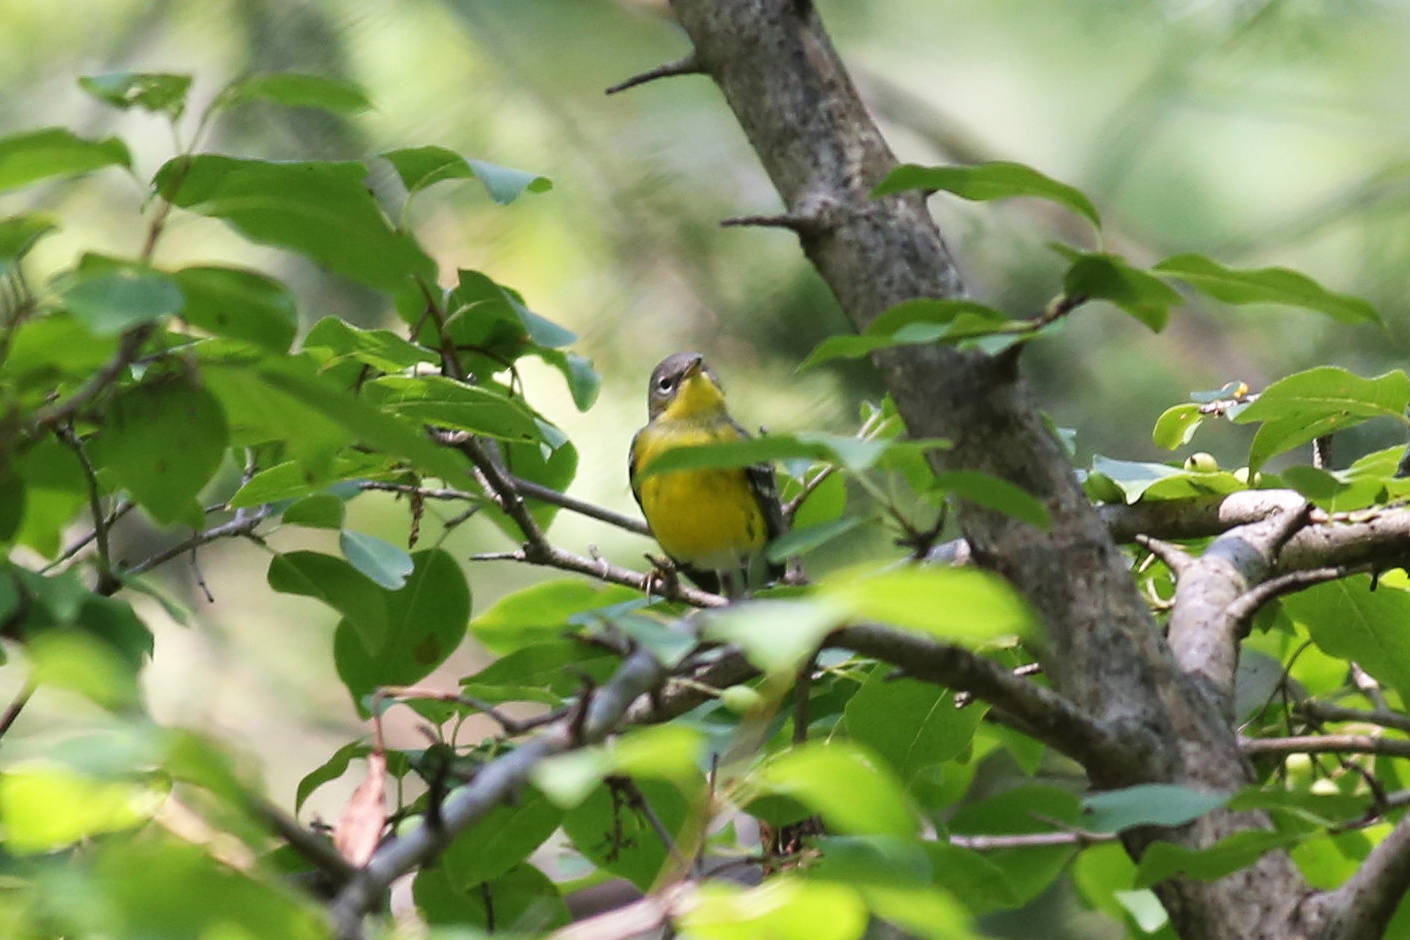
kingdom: Animalia
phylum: Chordata
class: Aves
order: Passeriformes
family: Parulidae
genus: Setophaga
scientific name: Setophaga magnolia
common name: Magnolia warbler
